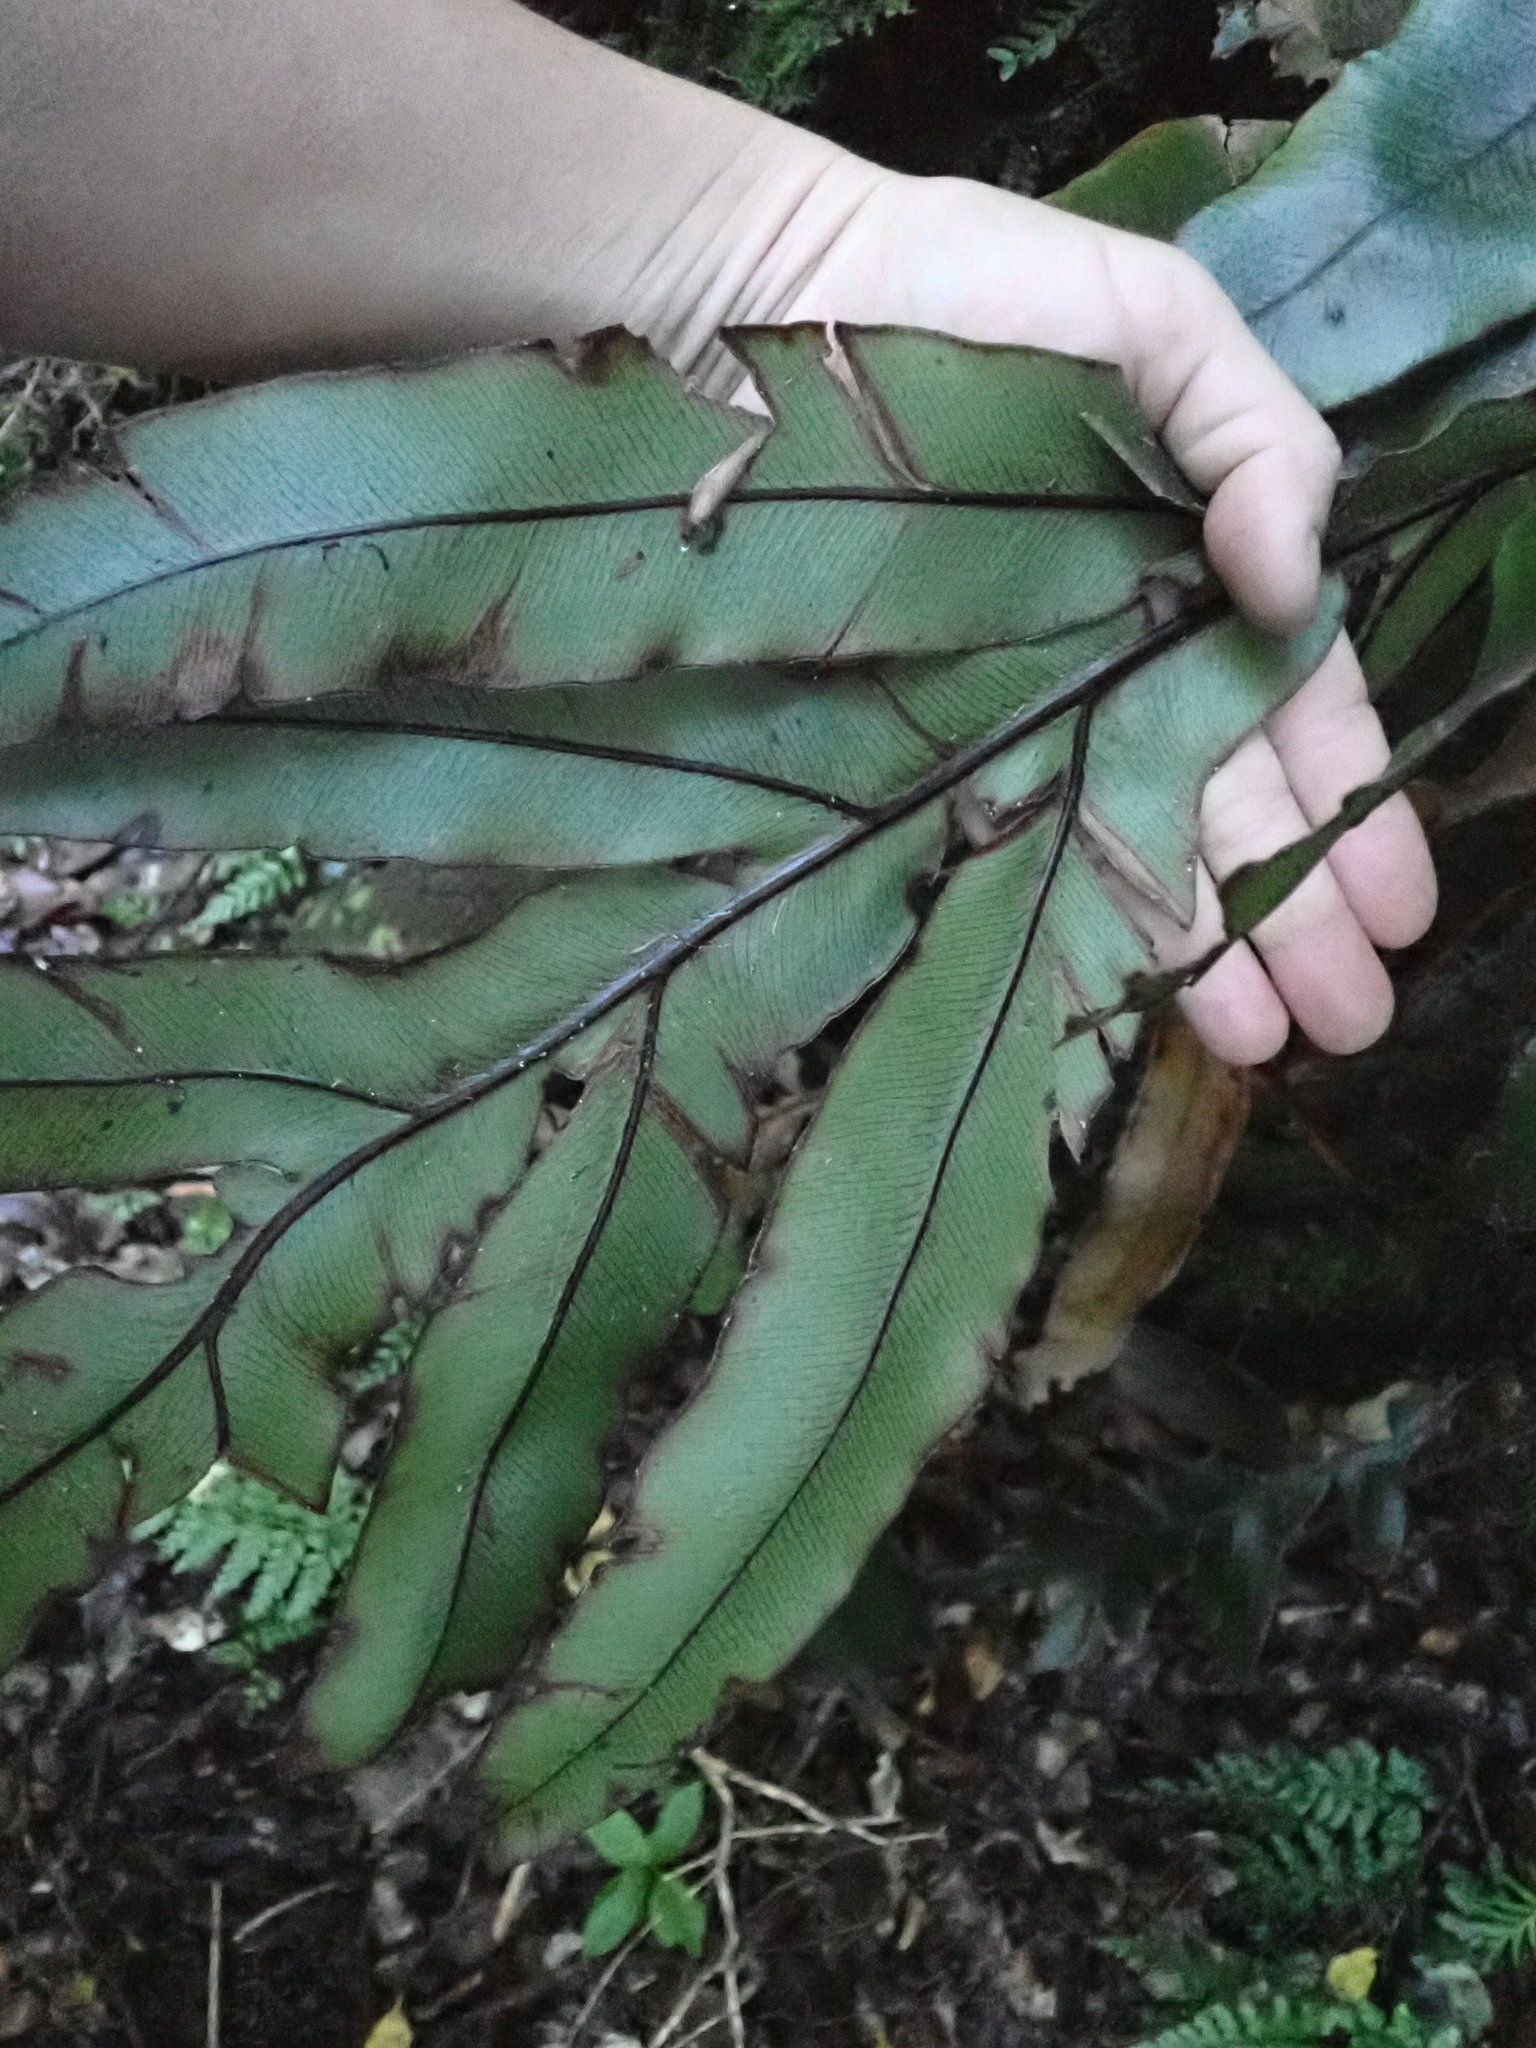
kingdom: Plantae
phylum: Tracheophyta
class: Polypodiopsida
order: Polypodiales
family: Blechnaceae
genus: Austroblechnum
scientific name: Austroblechnum colensoi
